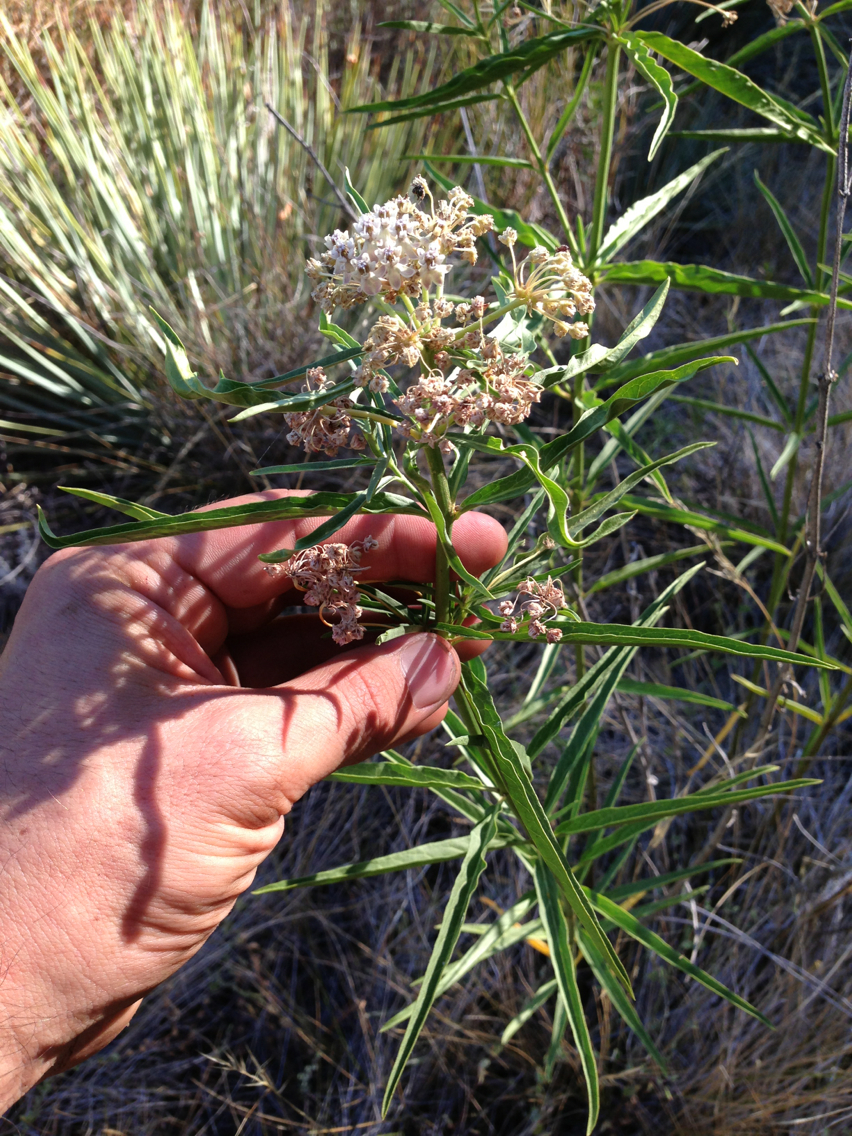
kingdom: Plantae
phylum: Tracheophyta
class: Magnoliopsida
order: Gentianales
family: Apocynaceae
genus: Asclepias
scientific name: Asclepias fascicularis
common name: Mexican milkweed
